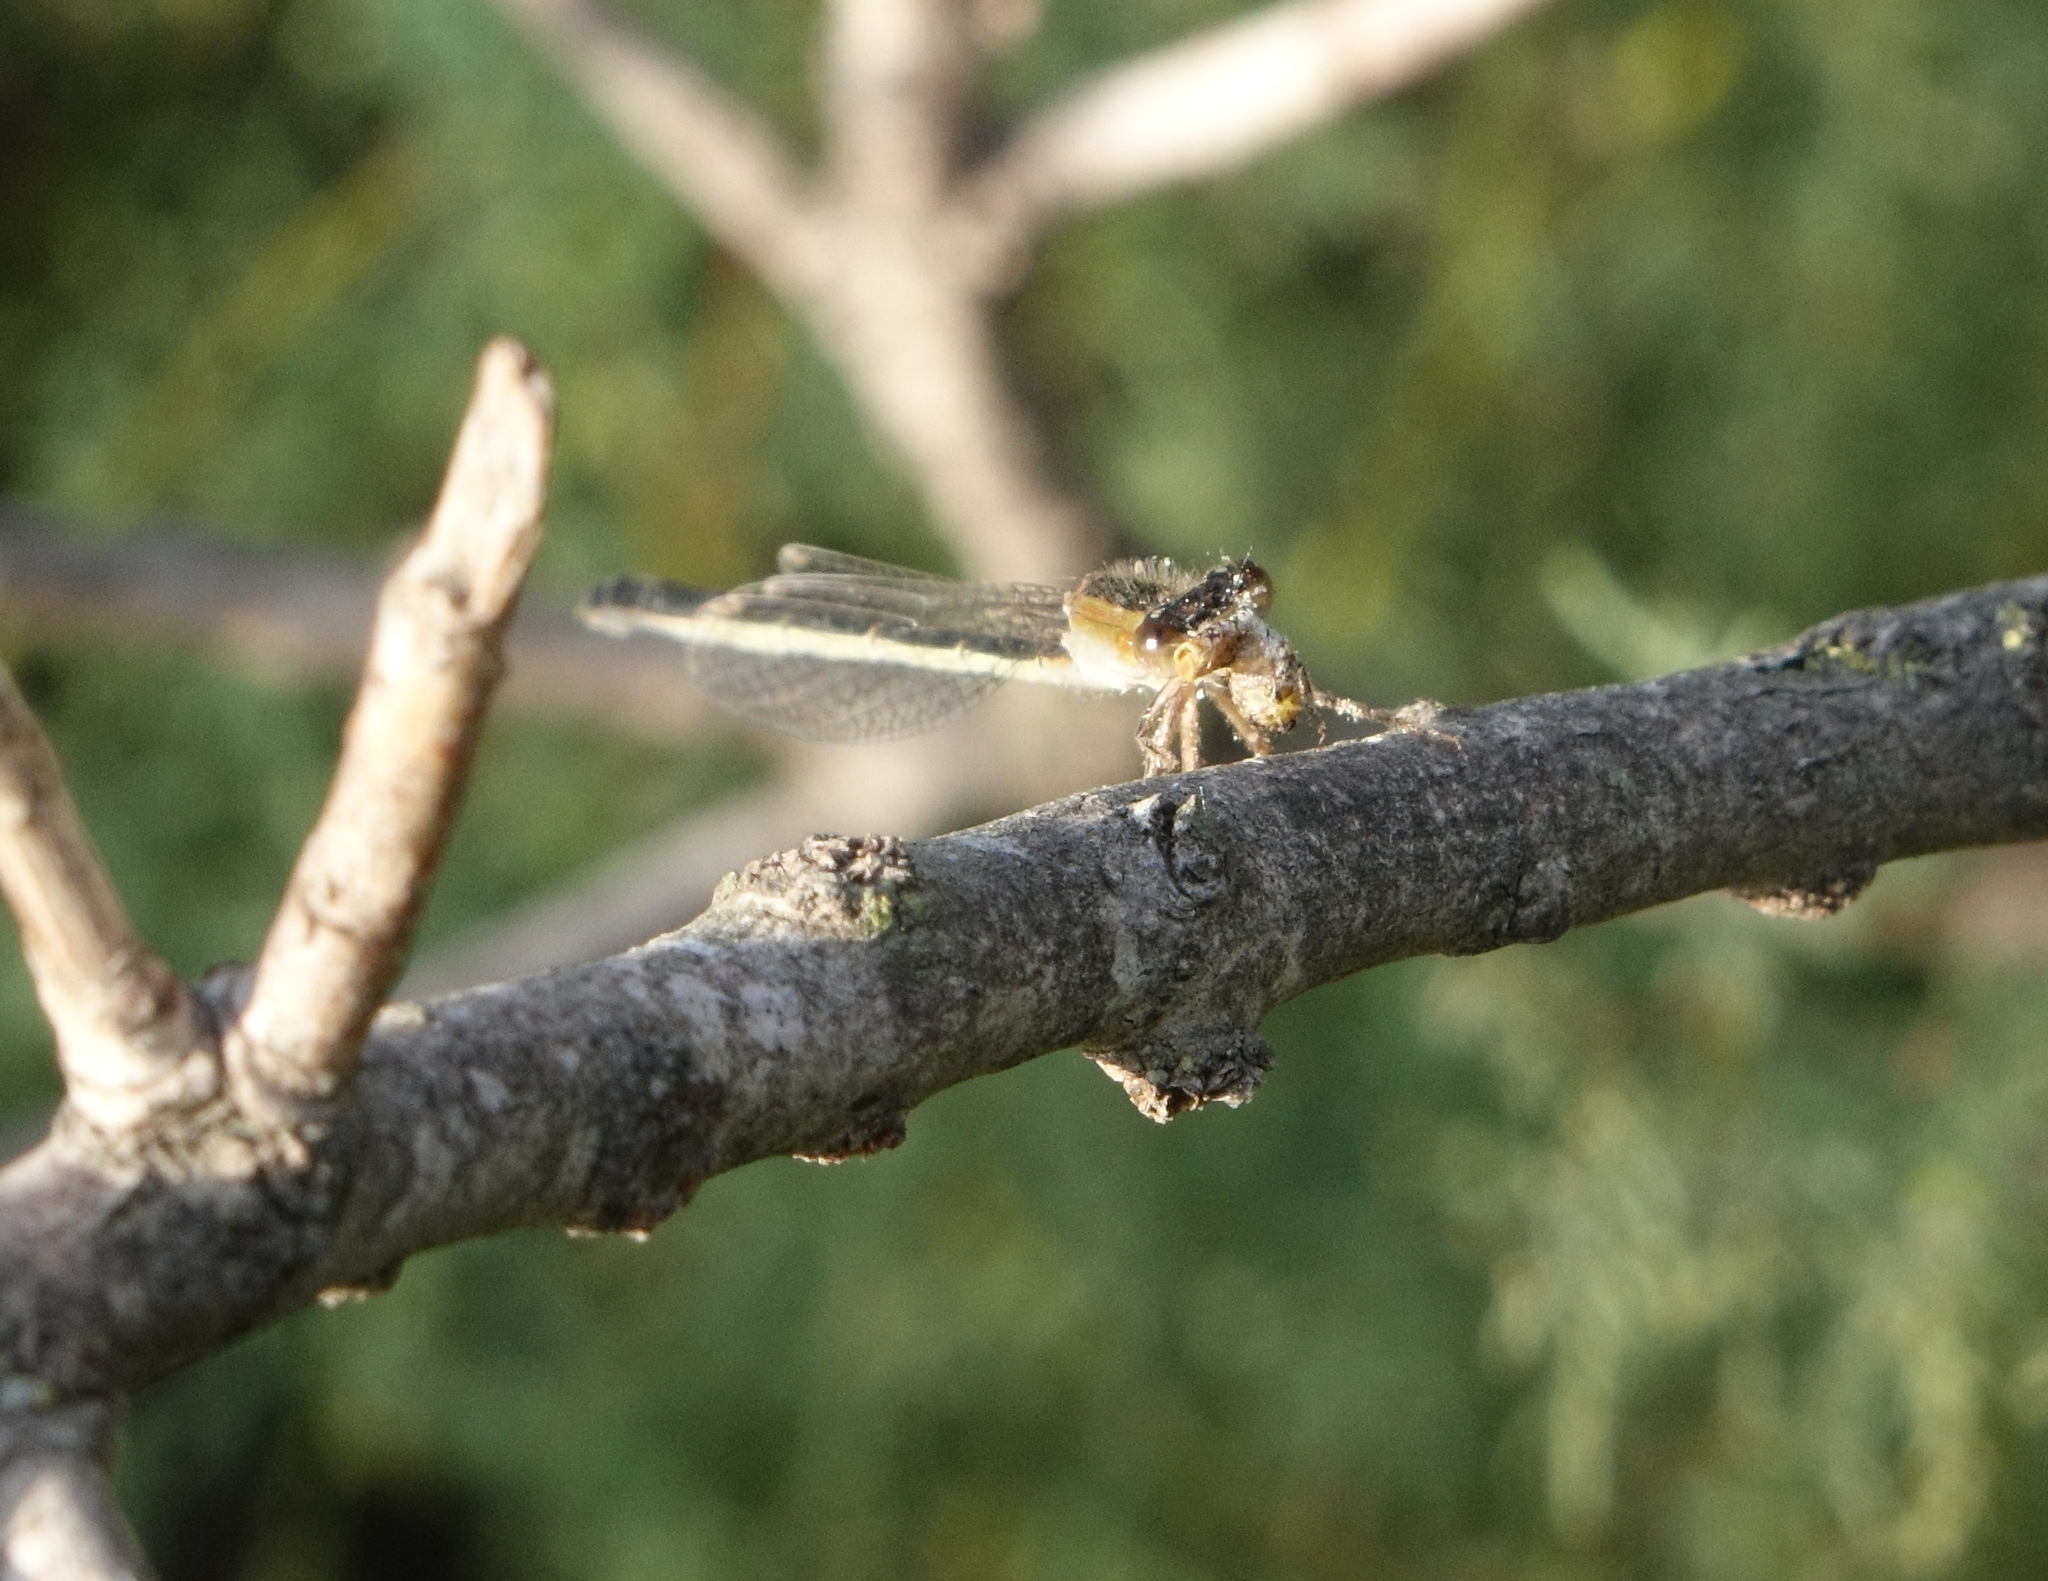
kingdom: Animalia
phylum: Arthropoda
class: Insecta
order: Odonata
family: Coenagrionidae
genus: Ischnura
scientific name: Ischnura fountaineae
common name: Oasis bluetail
